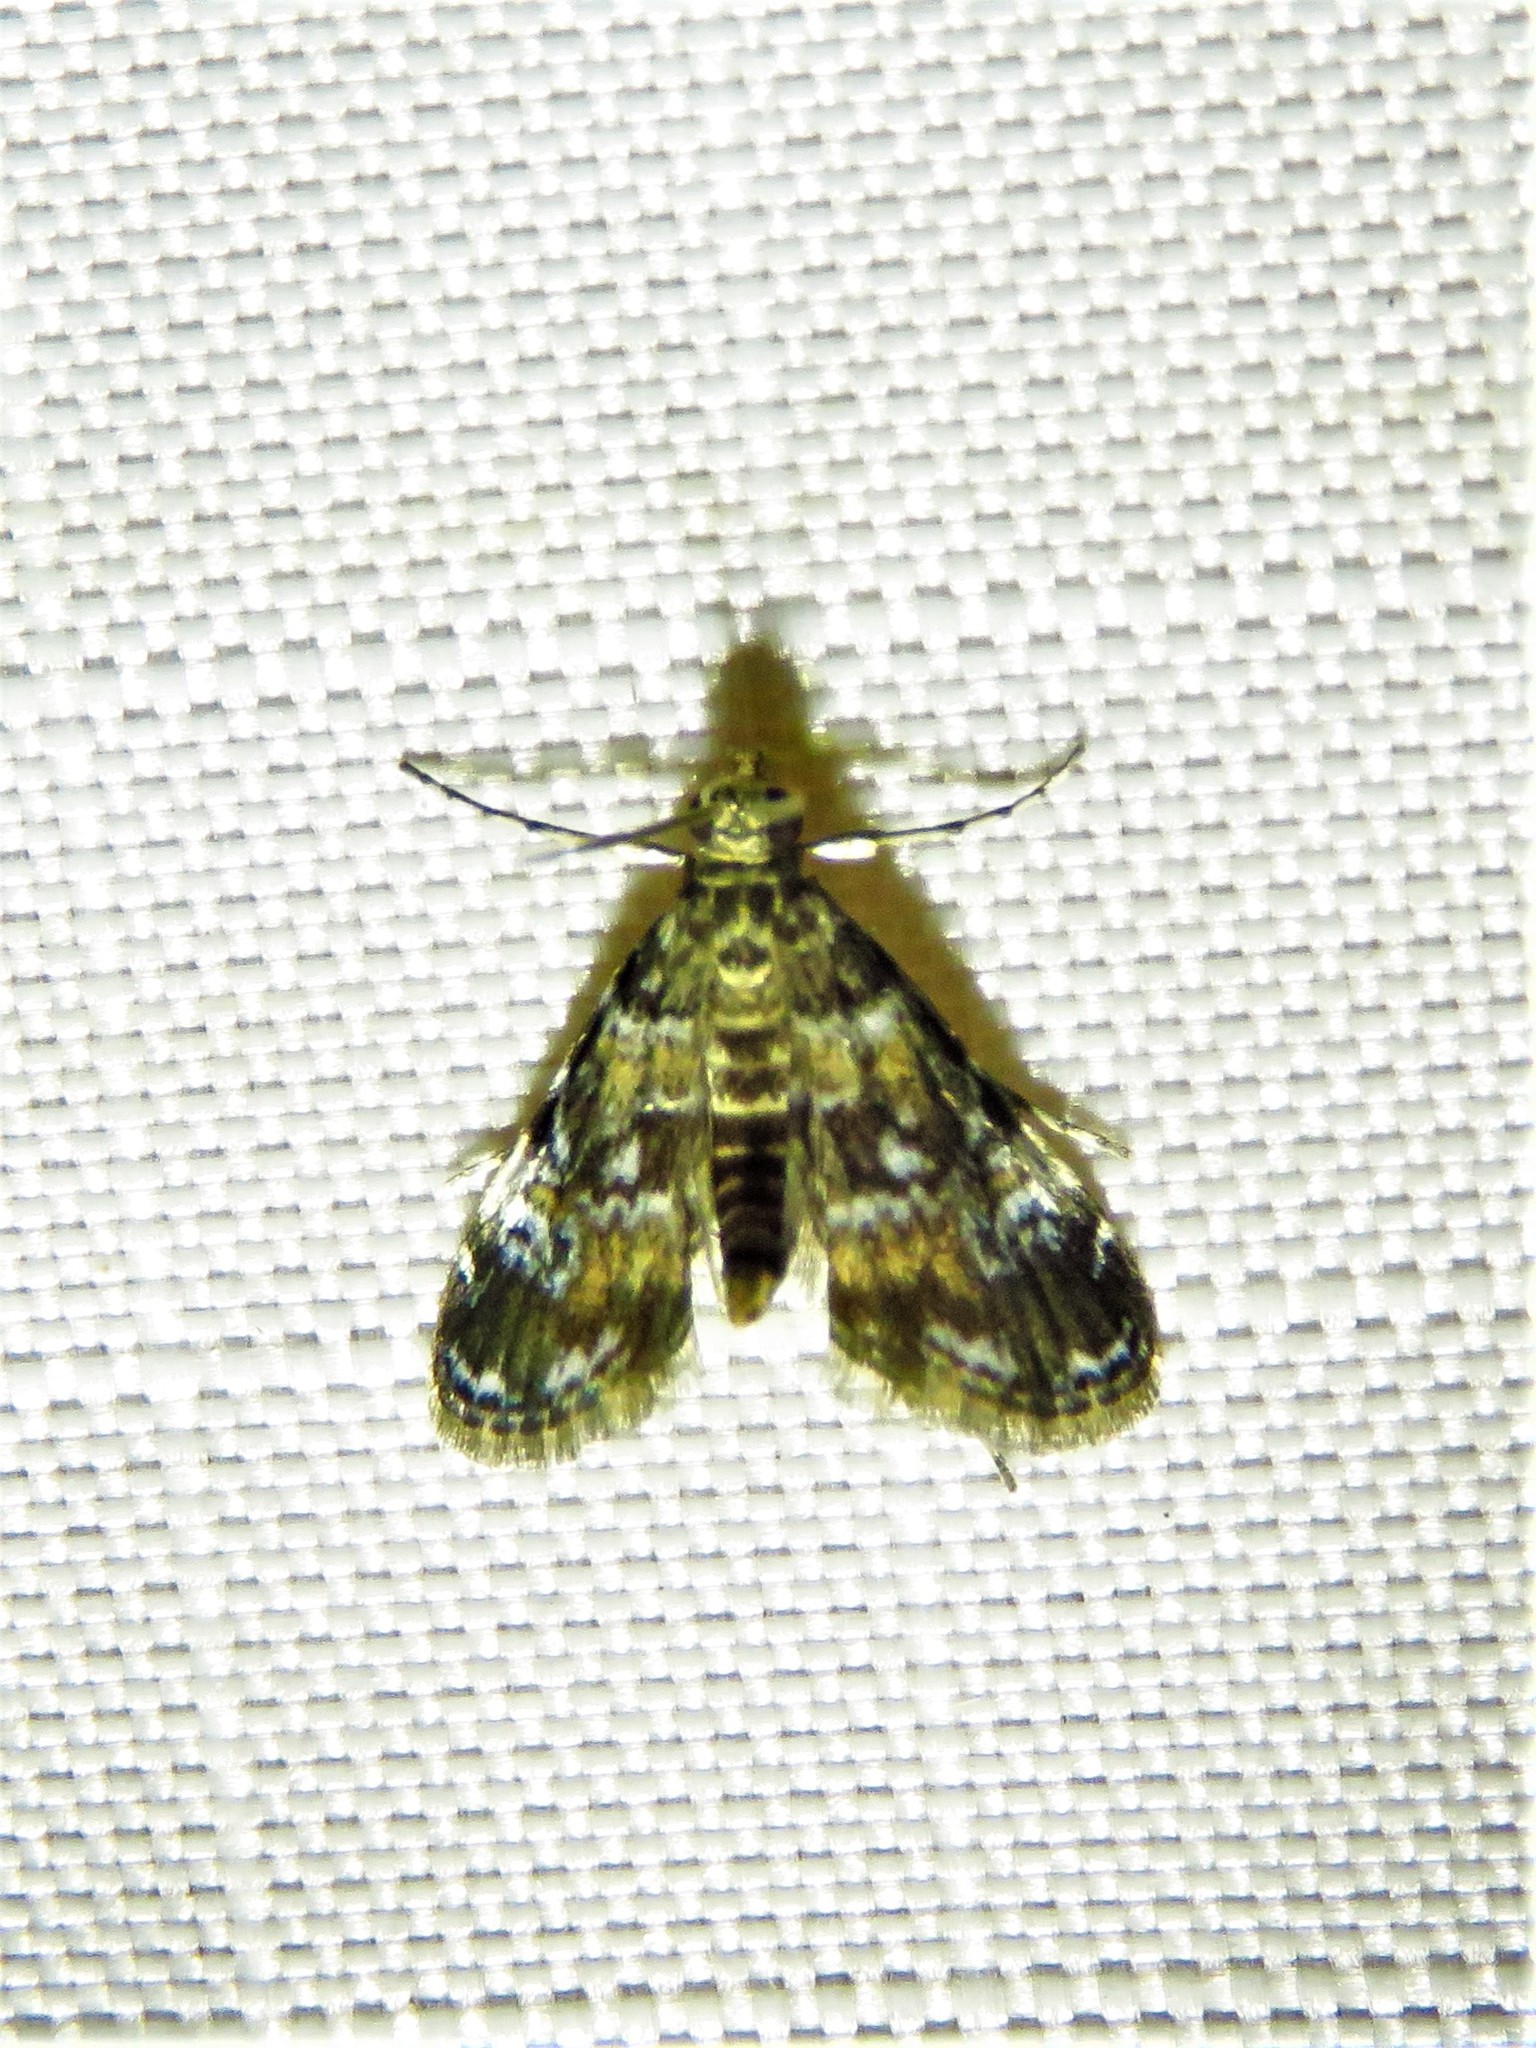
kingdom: Animalia
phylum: Arthropoda
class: Insecta
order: Lepidoptera
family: Crambidae
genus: Elophila
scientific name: Elophila obliteralis
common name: Waterlily leafcutter moth
